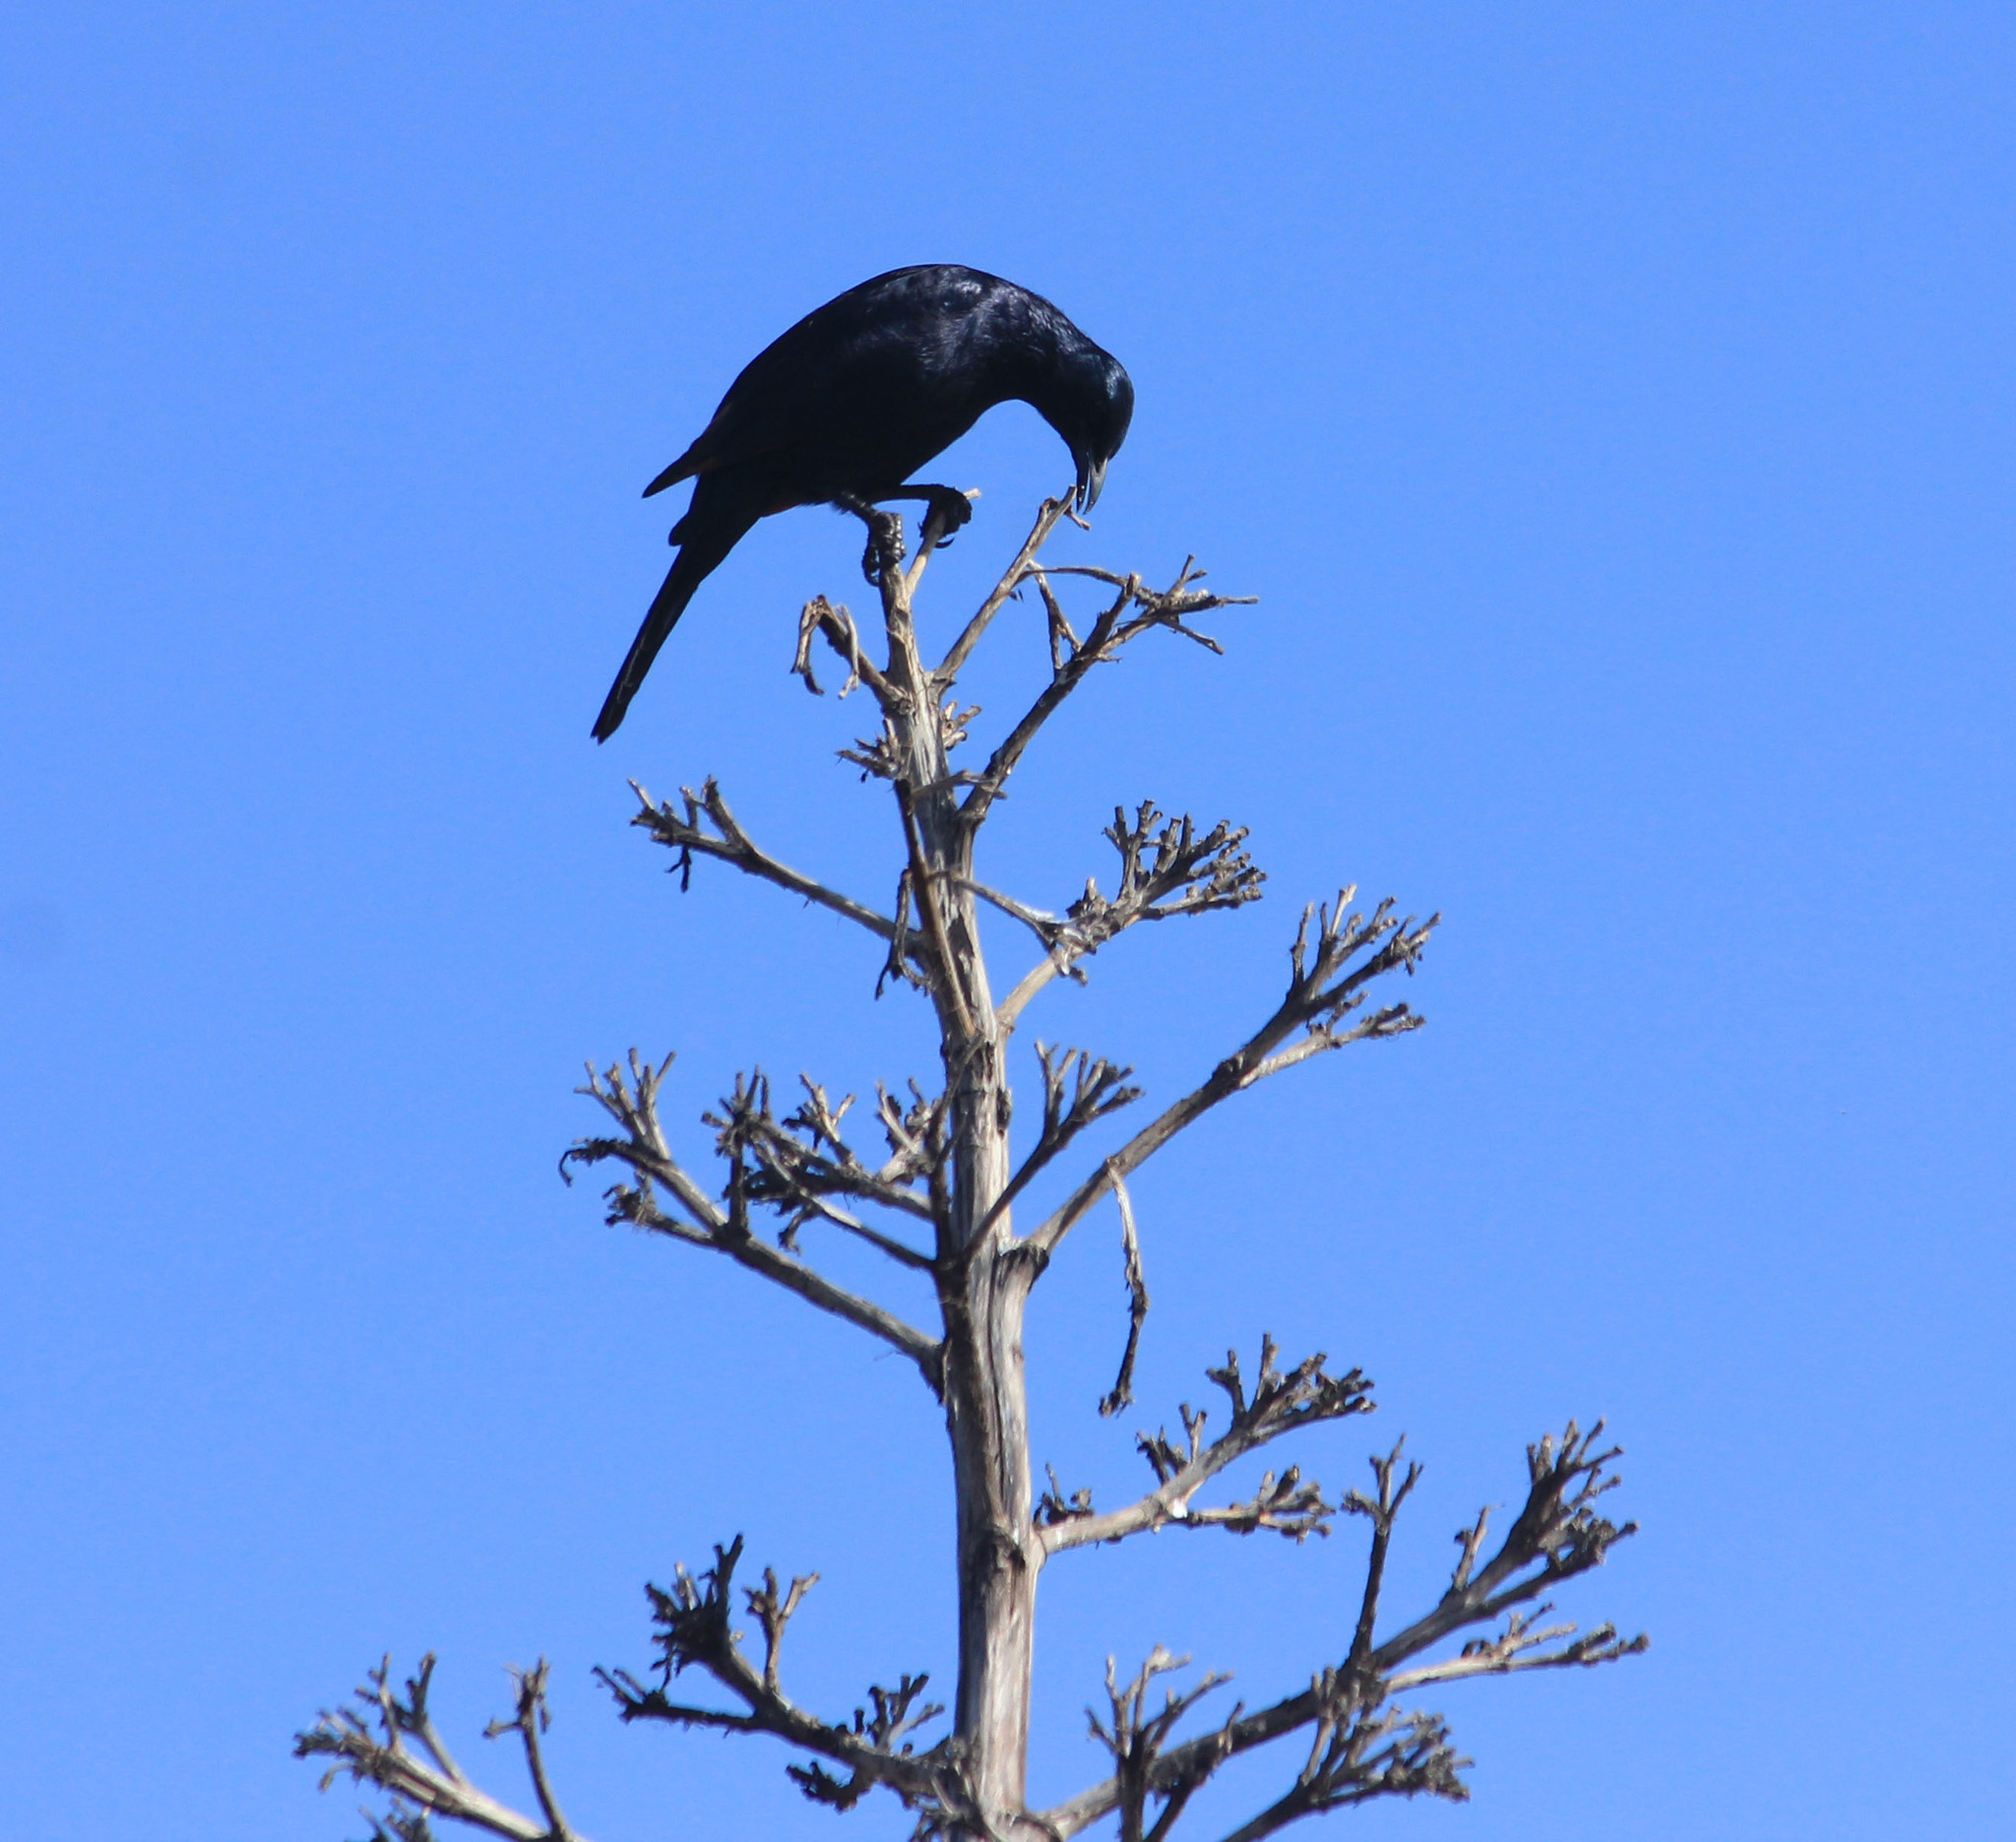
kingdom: Animalia
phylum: Chordata
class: Aves
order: Passeriformes
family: Sturnidae
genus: Onychognathus
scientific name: Onychognathus morio
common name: Red-winged starling
